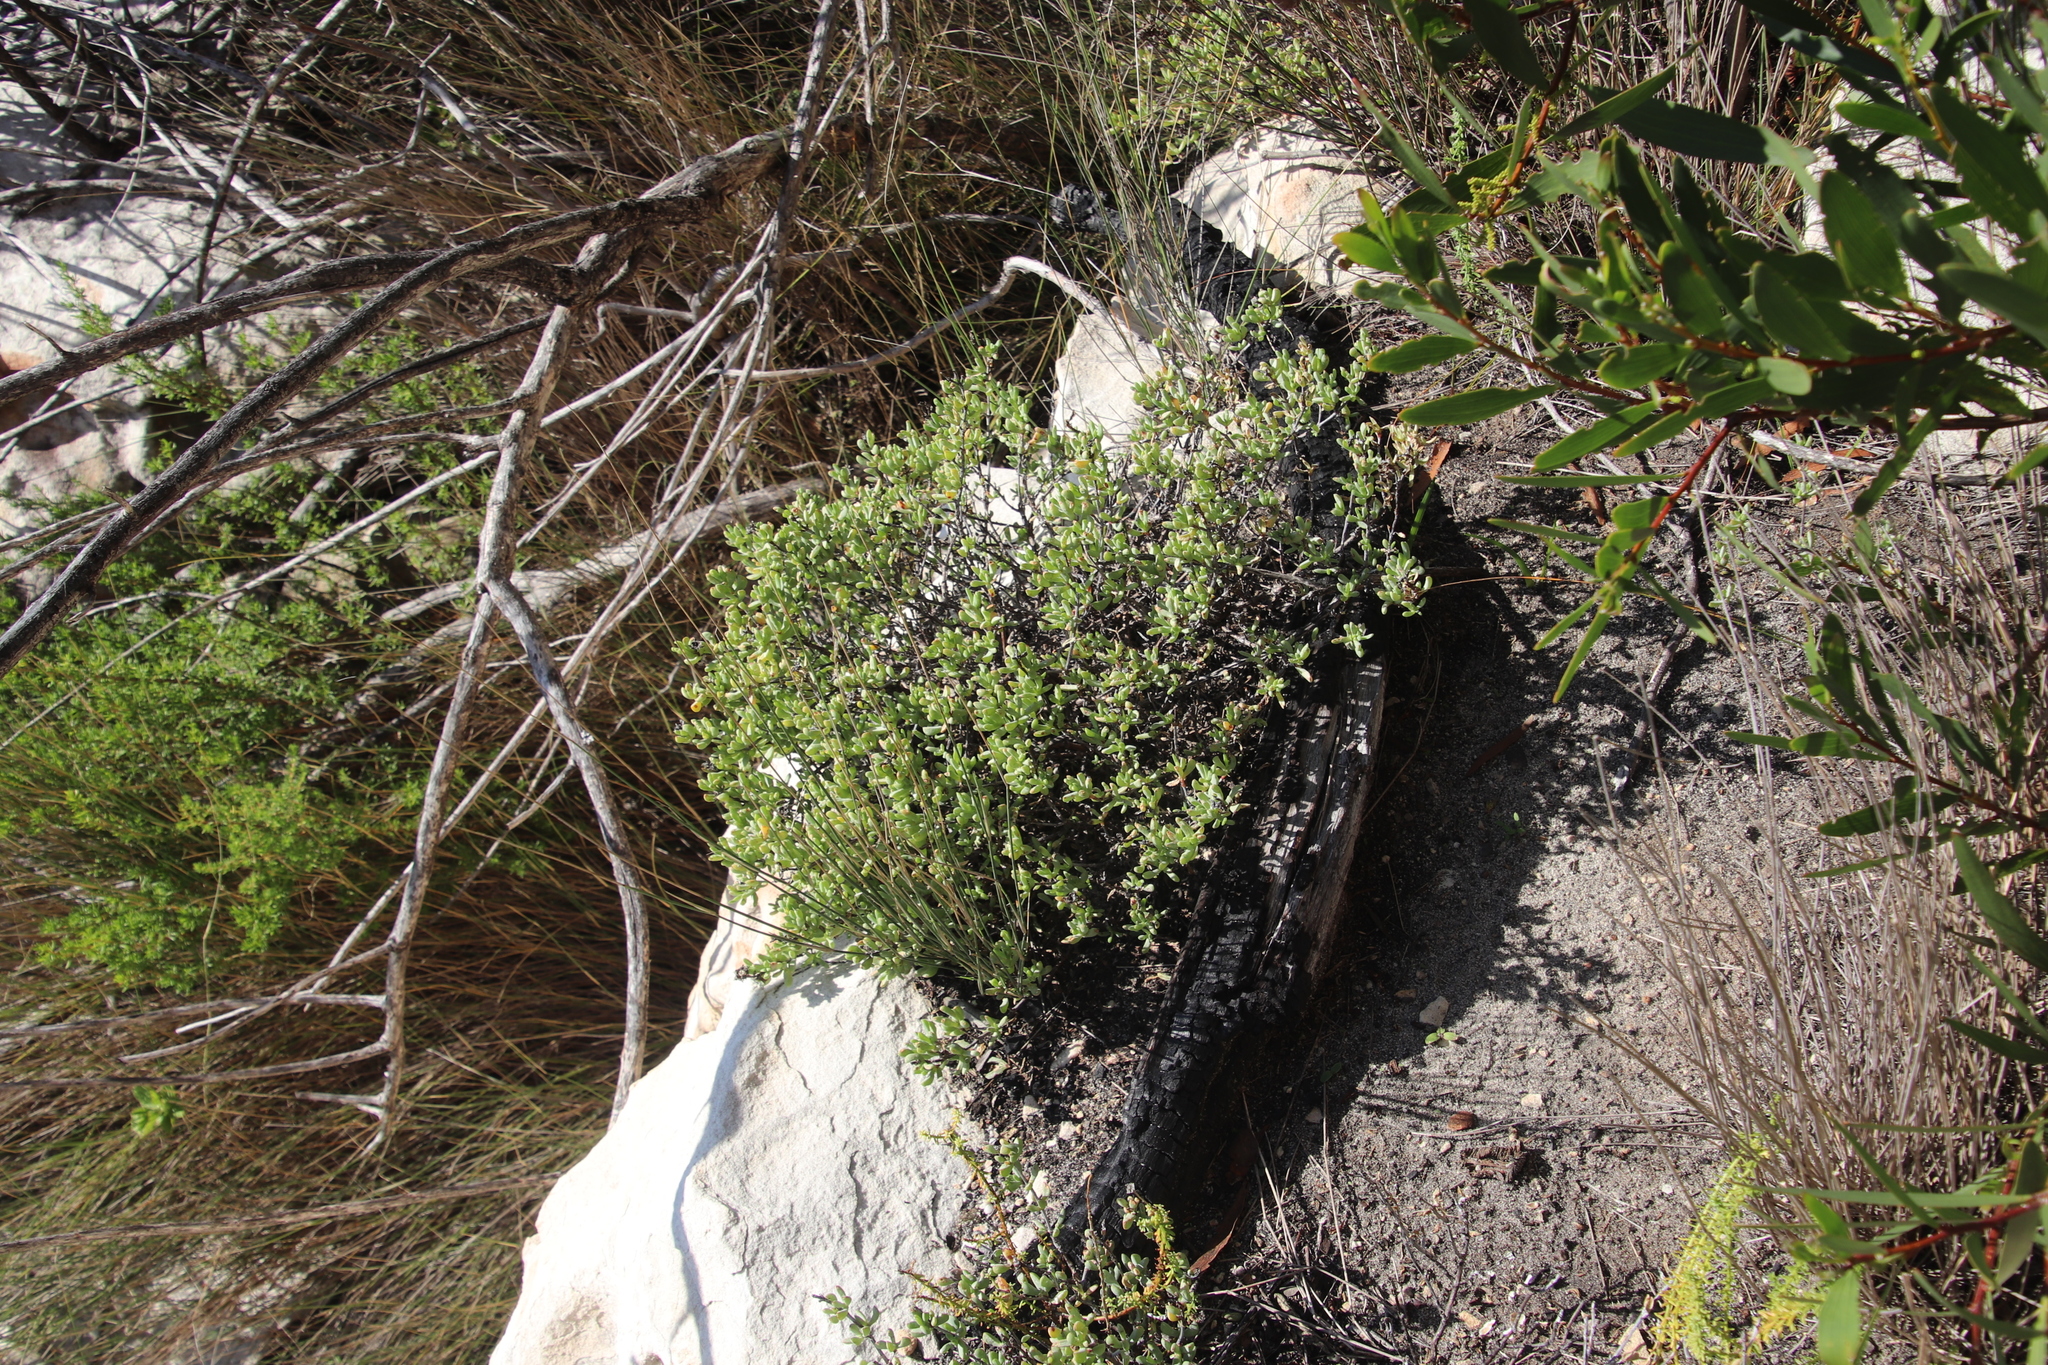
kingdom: Plantae
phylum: Tracheophyta
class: Magnoliopsida
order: Caryophyllales
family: Aizoaceae
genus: Oscularia
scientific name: Oscularia falciformis
